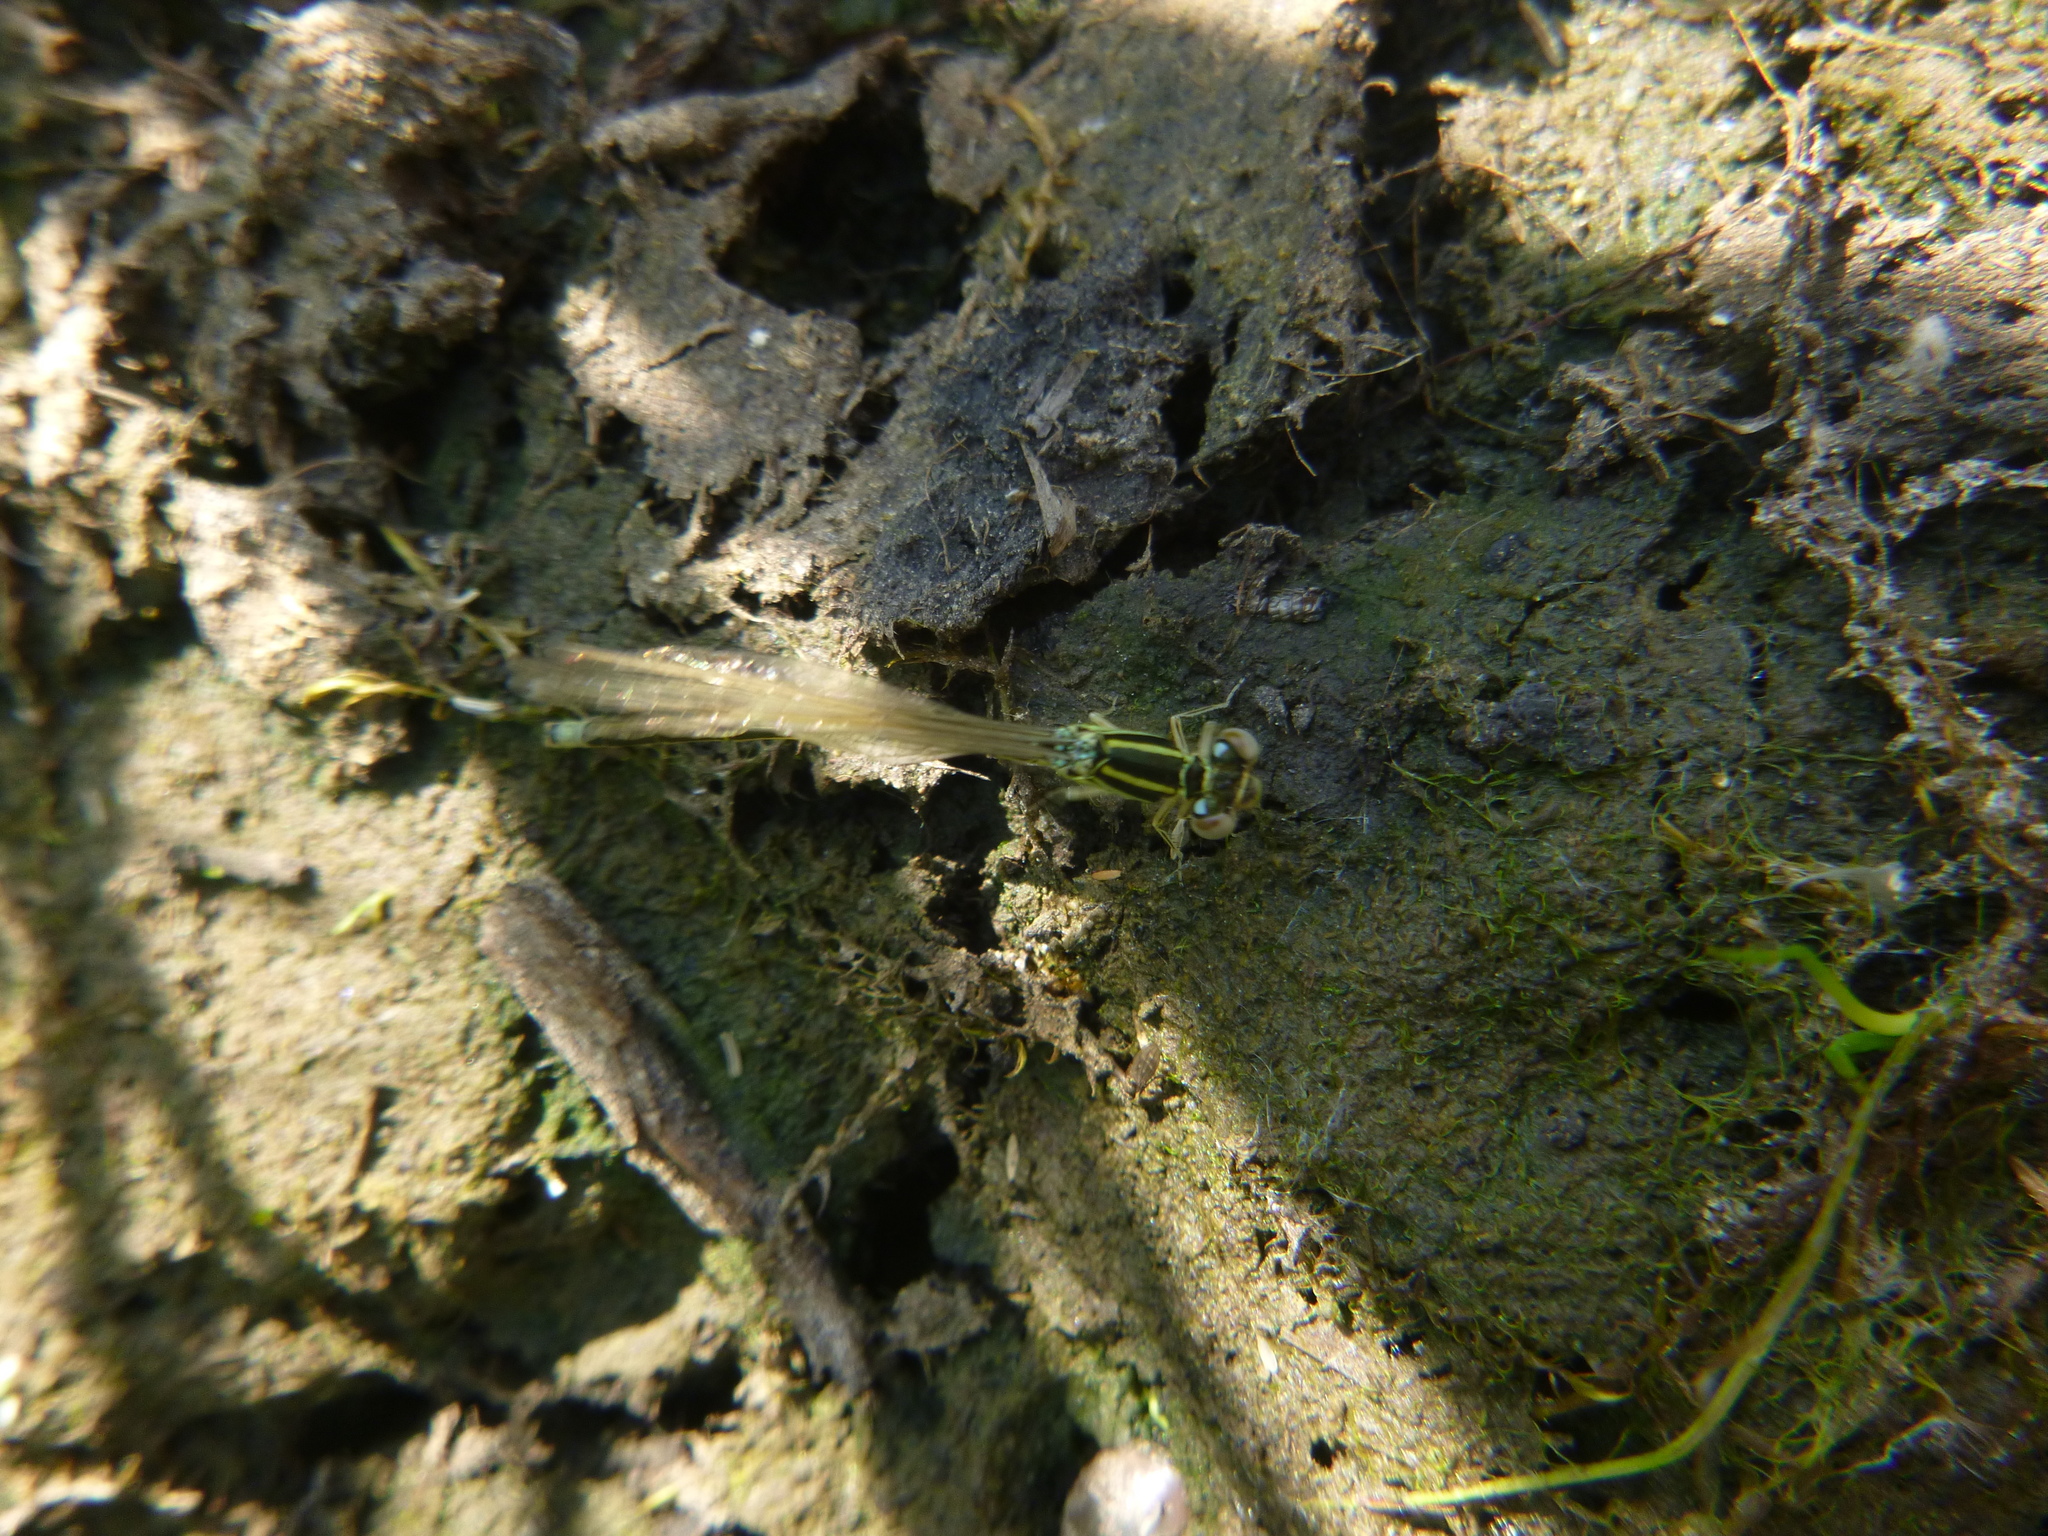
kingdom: Animalia
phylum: Arthropoda
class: Insecta
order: Odonata
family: Coenagrionidae
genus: Ischnura
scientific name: Ischnura pumilio
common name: Scarce blue-tailed damselfly
